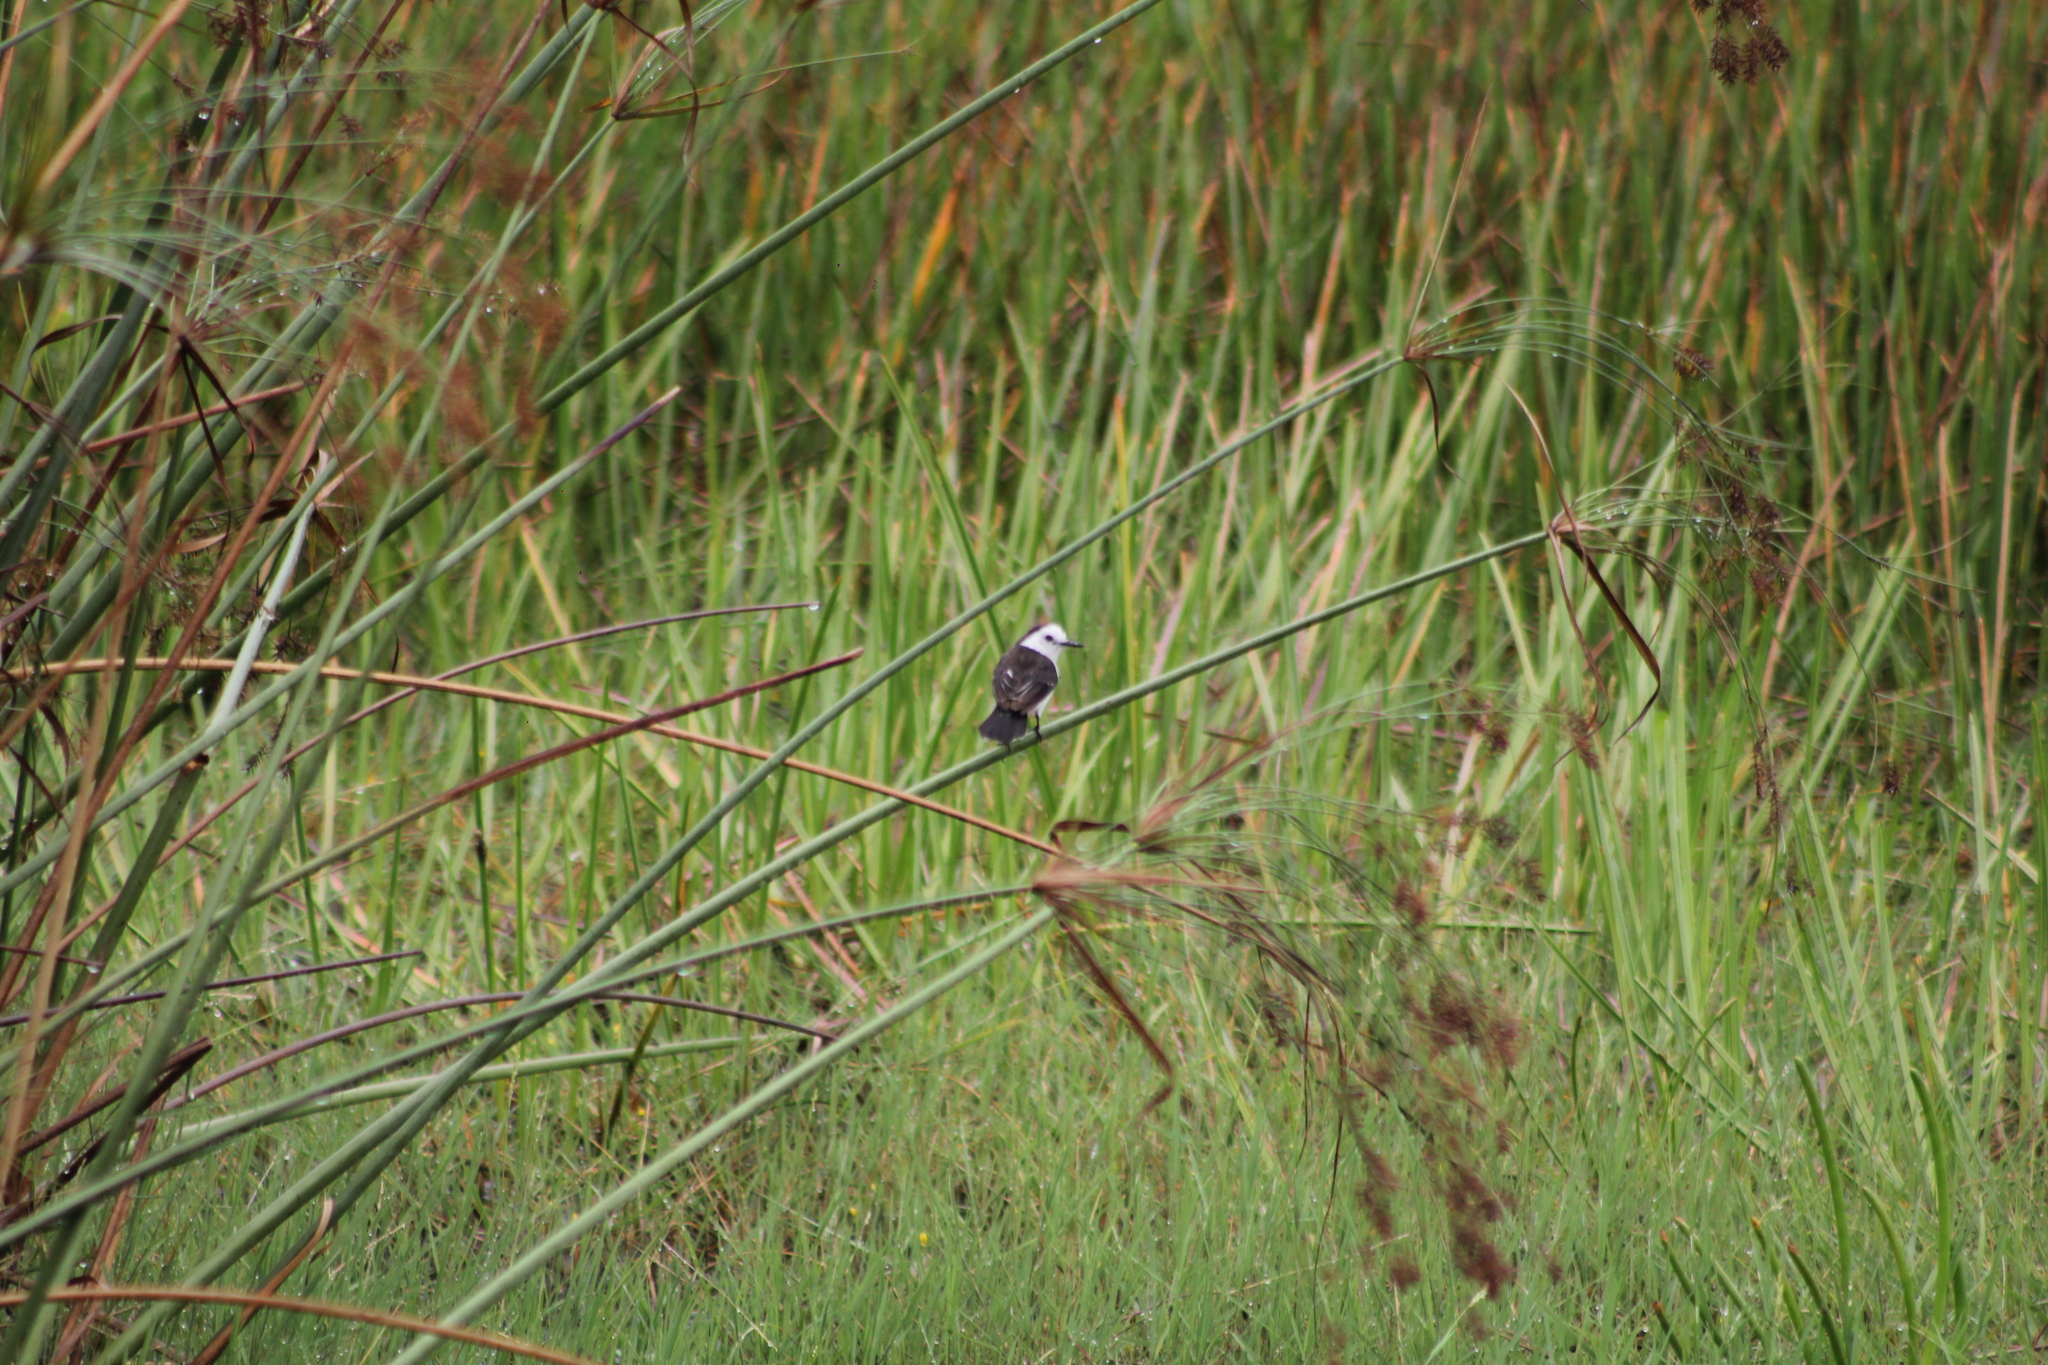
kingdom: Animalia
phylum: Chordata
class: Aves
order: Passeriformes
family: Tyrannidae
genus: Fluvicola
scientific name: Fluvicola pica
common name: Pied water-tyrant
